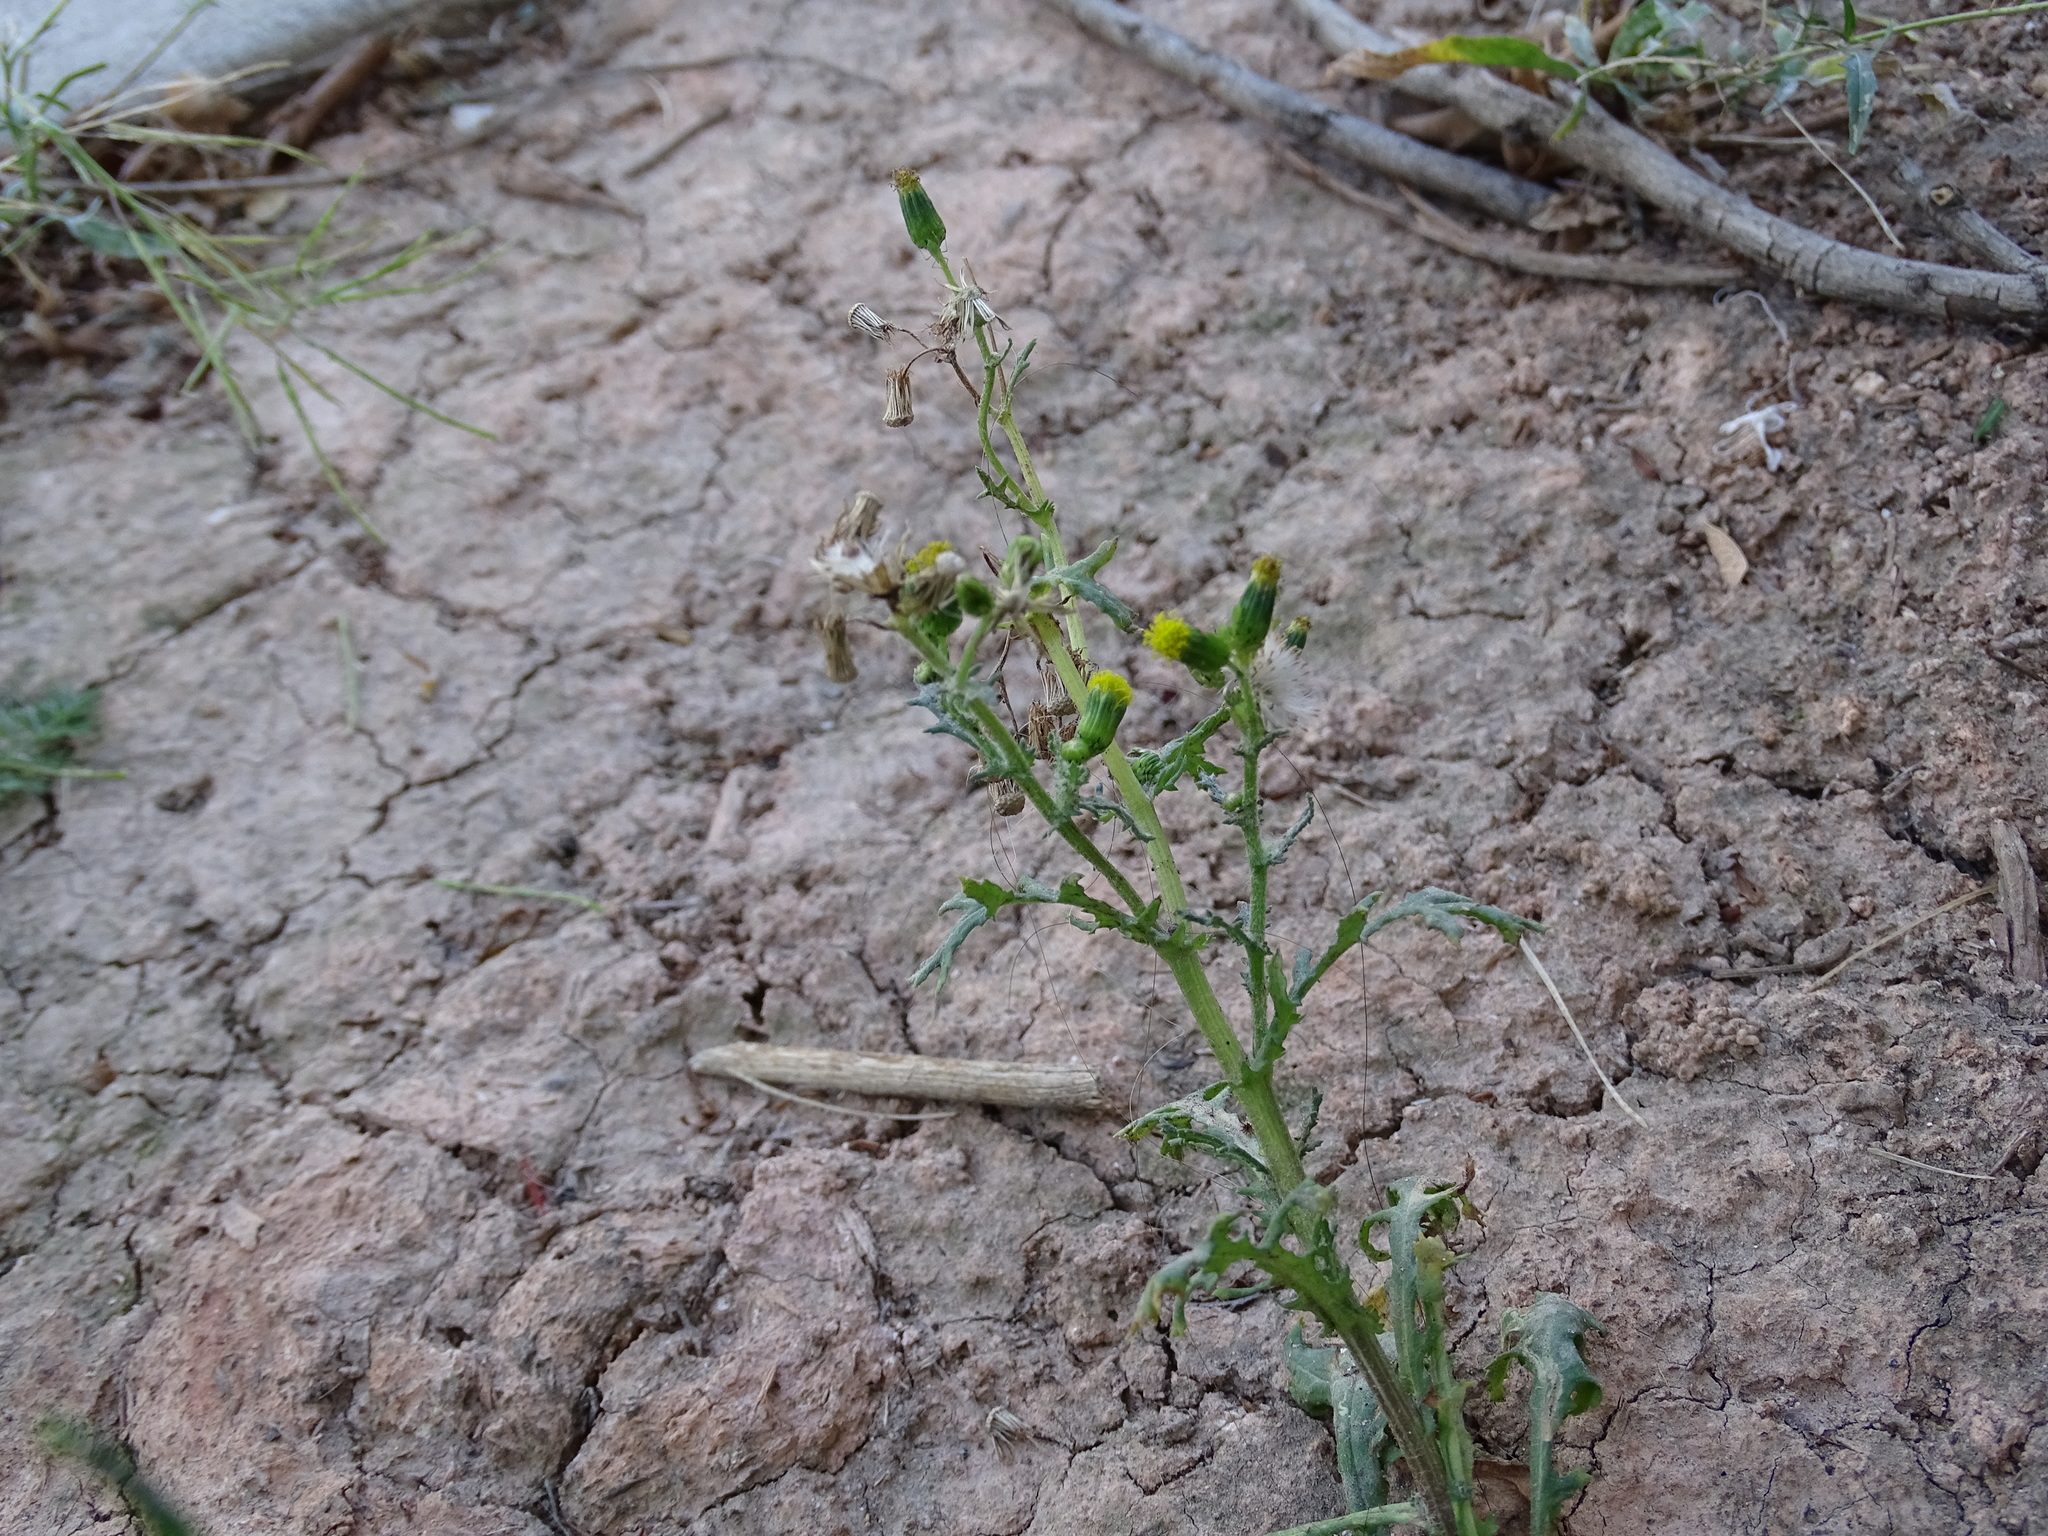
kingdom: Plantae
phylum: Tracheophyta
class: Magnoliopsida
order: Asterales
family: Asteraceae
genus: Senecio
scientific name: Senecio vulgaris
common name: Old-man-in-the-spring
